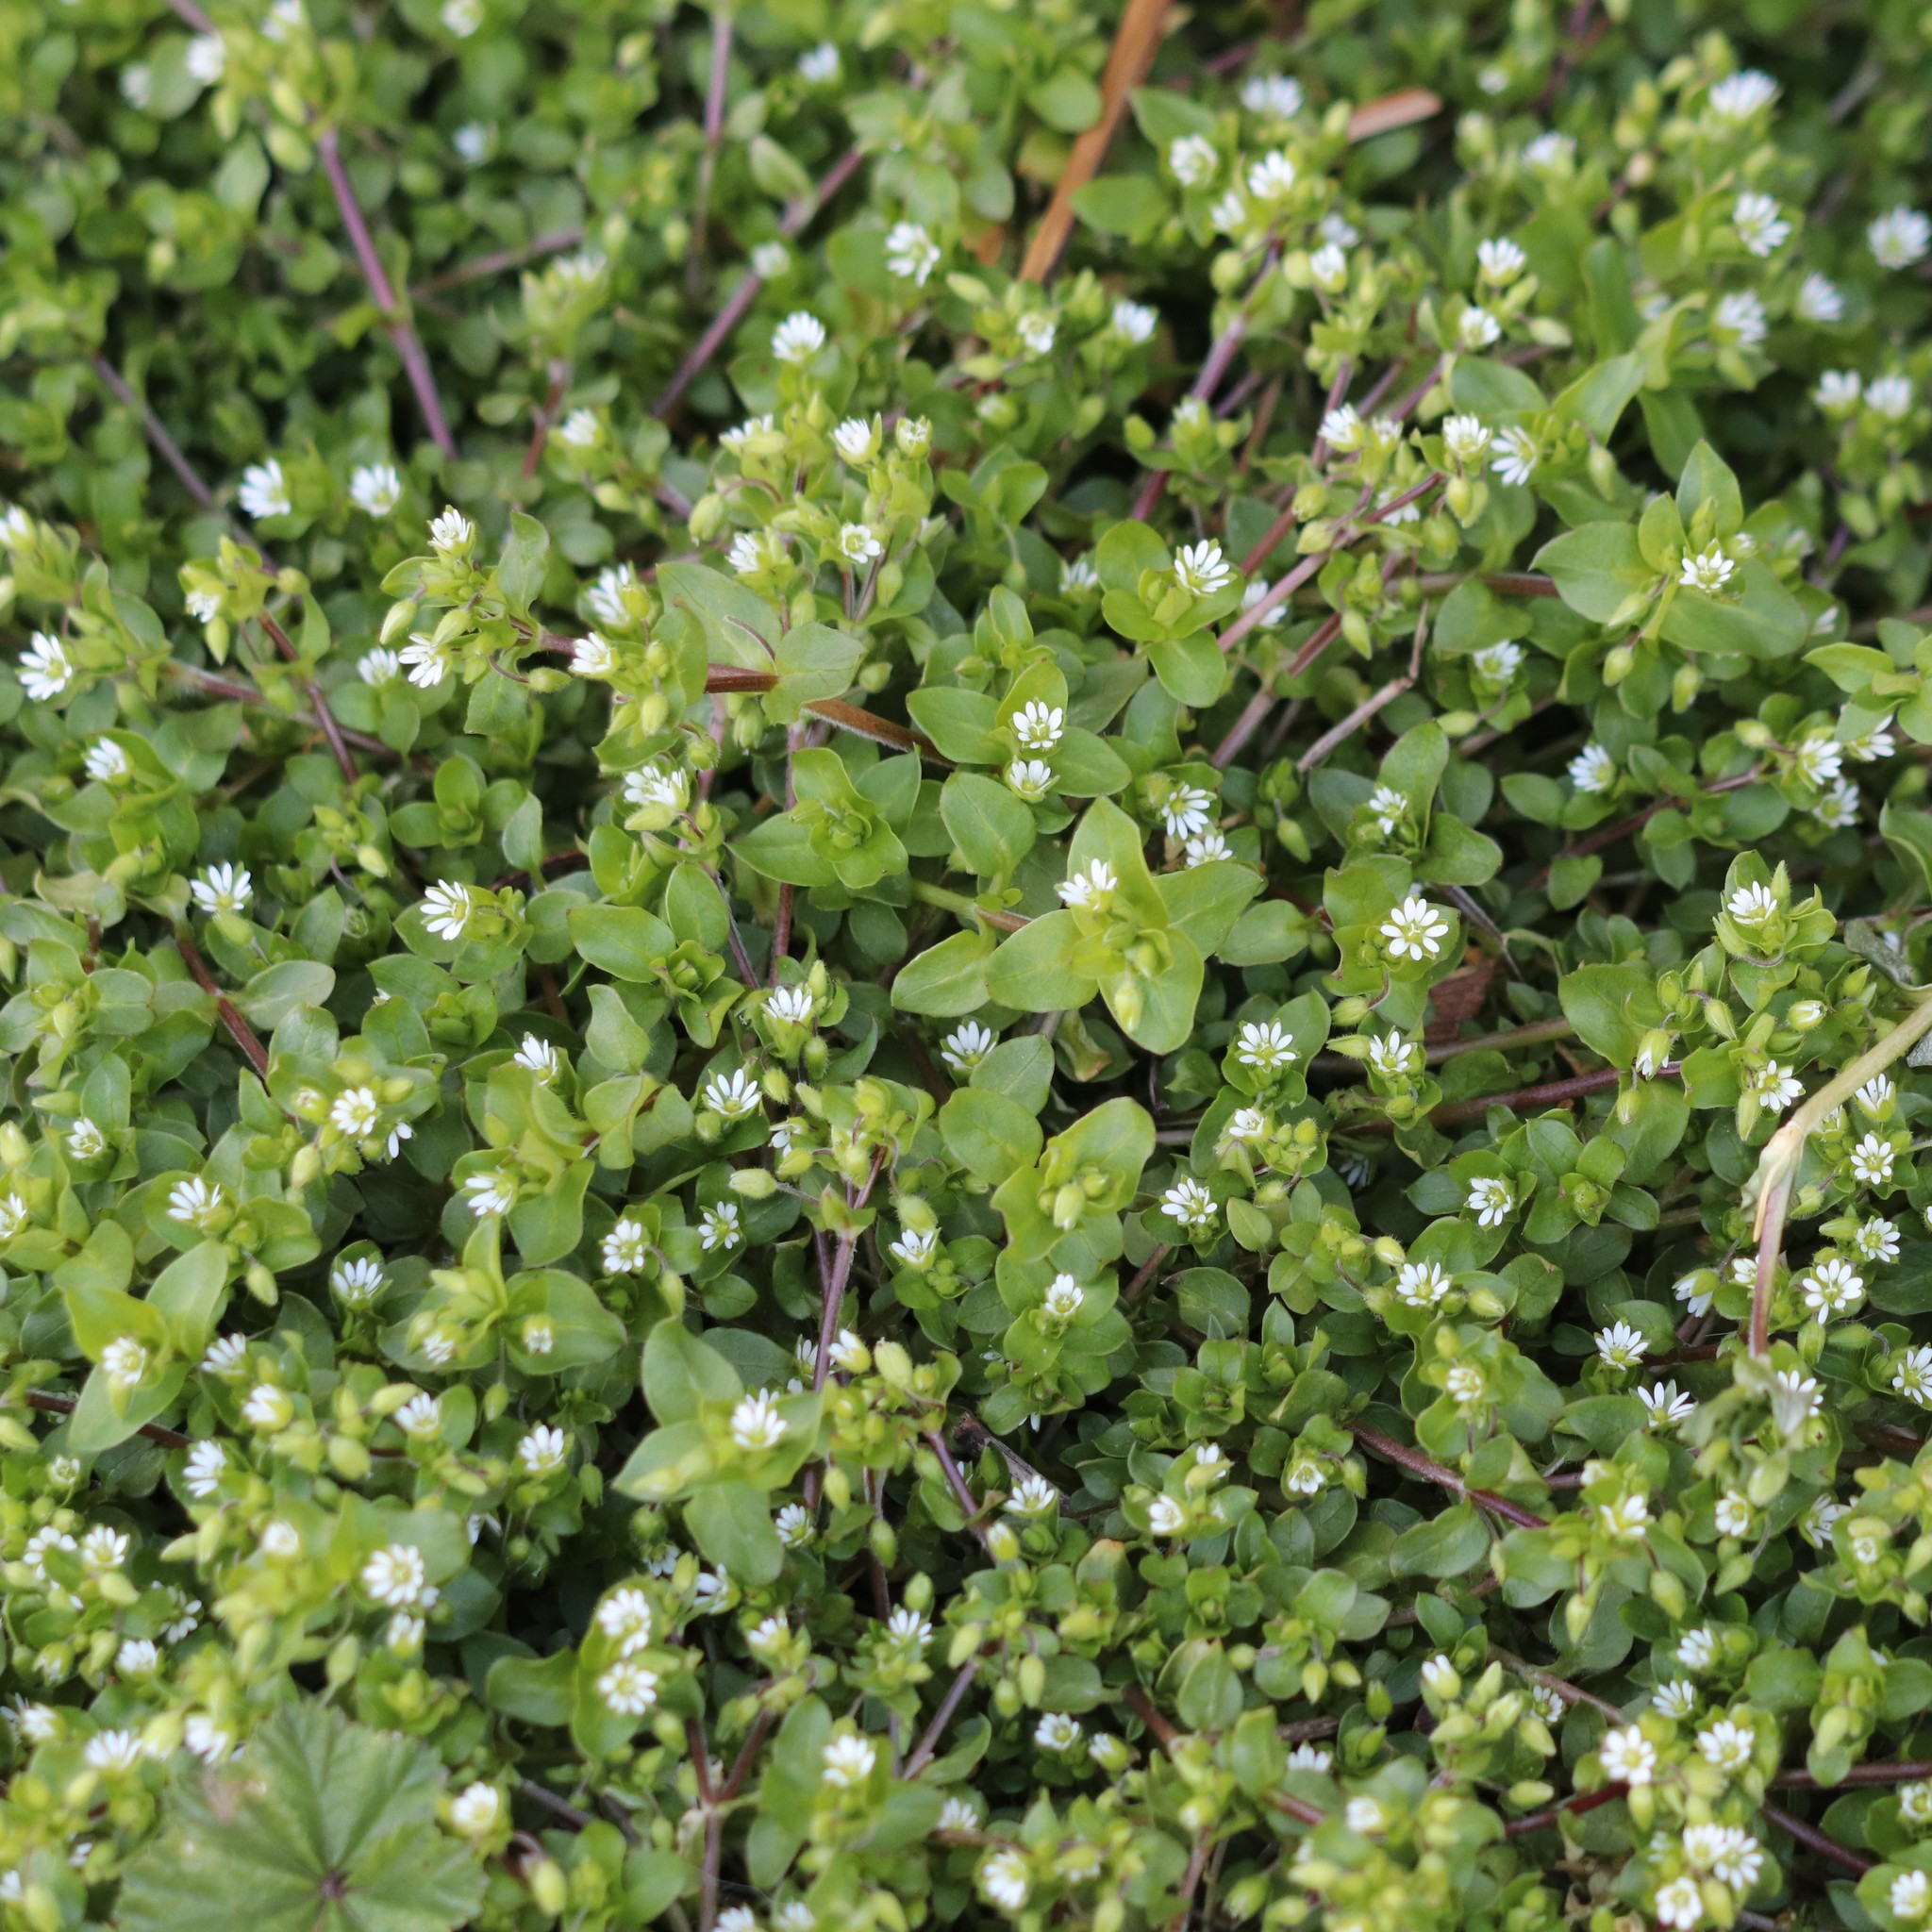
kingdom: Plantae
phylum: Tracheophyta
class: Magnoliopsida
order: Caryophyllales
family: Caryophyllaceae
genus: Stellaria
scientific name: Stellaria media
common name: Common chickweed
